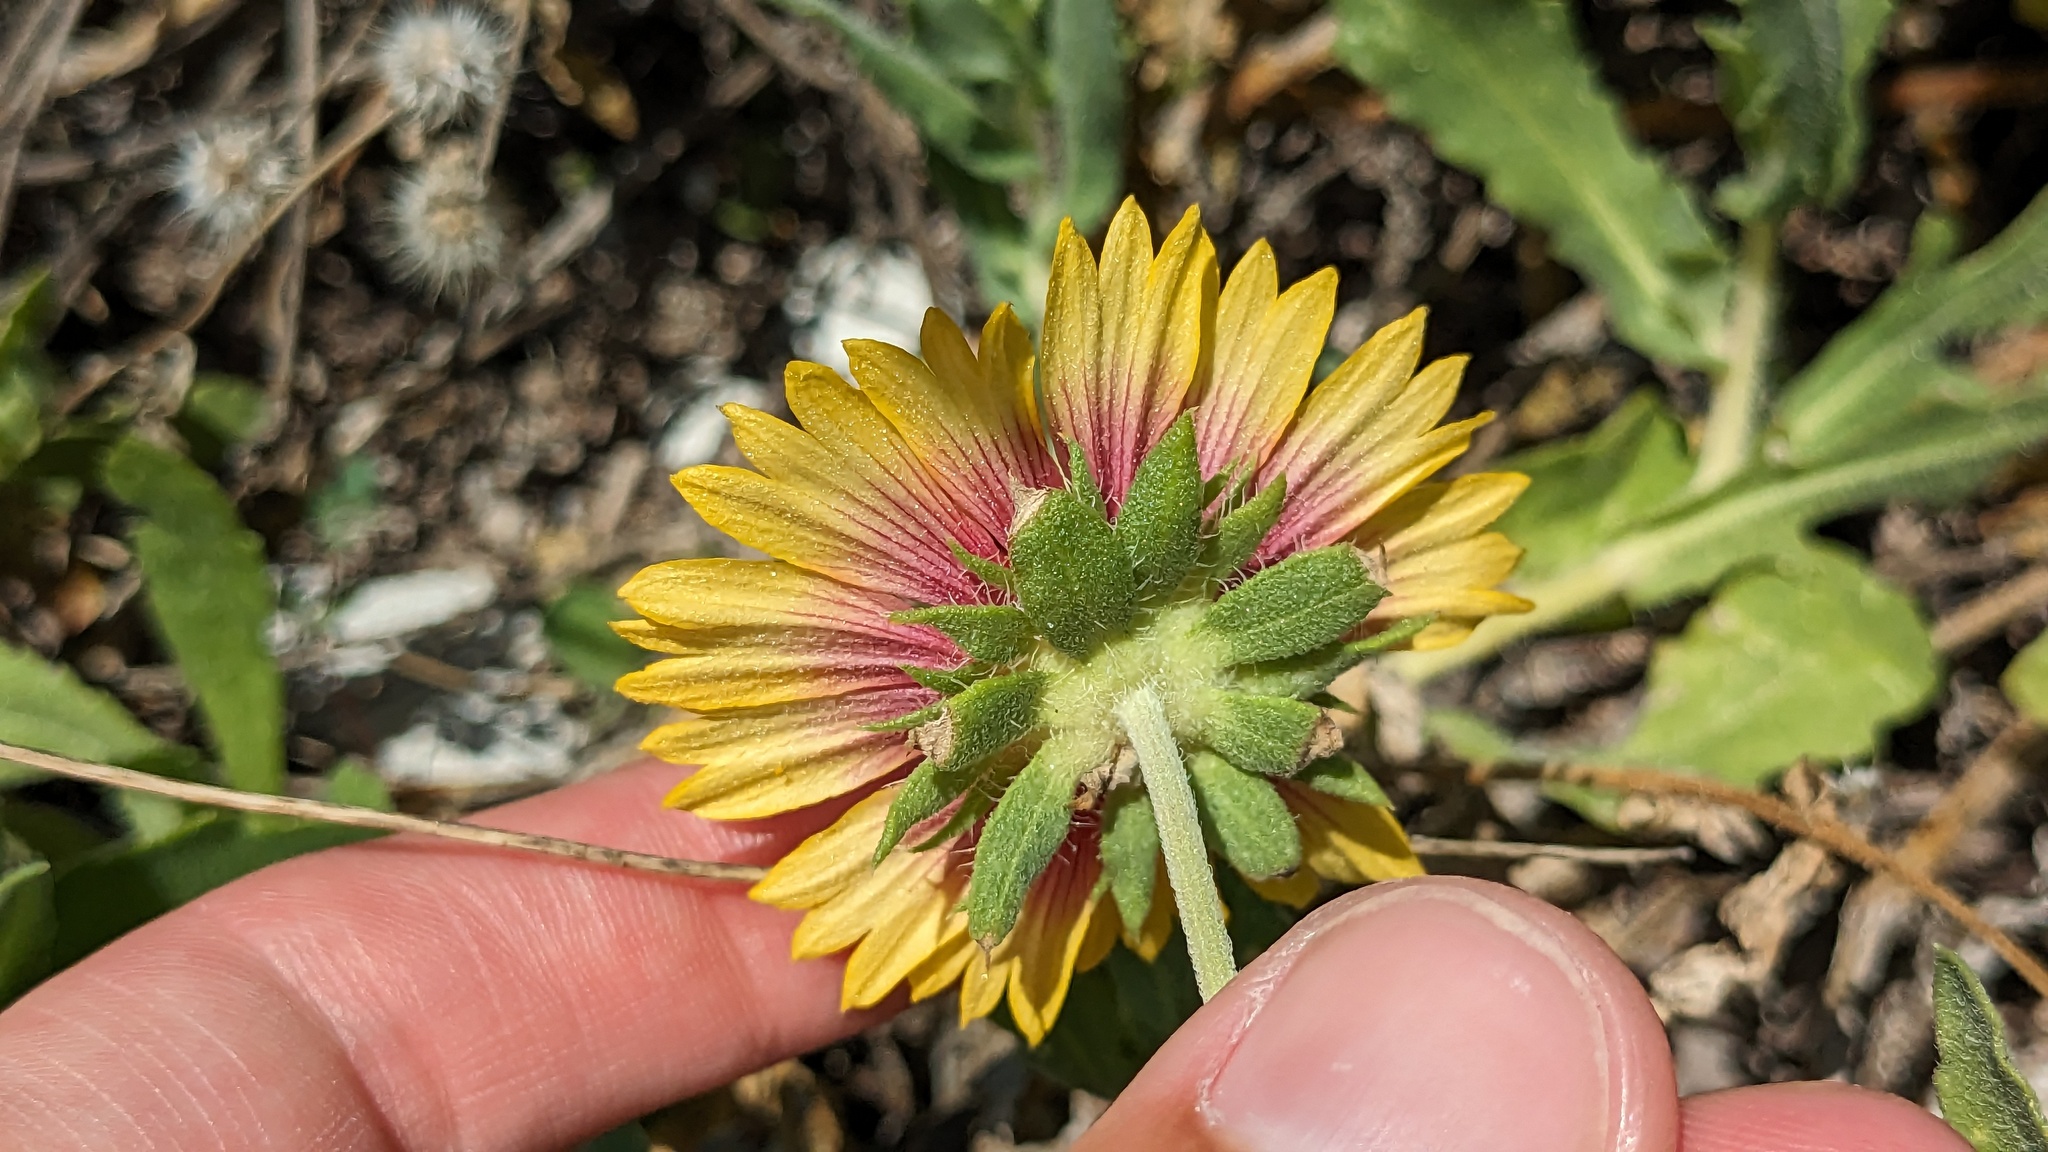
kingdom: Plantae
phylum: Tracheophyta
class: Magnoliopsida
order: Asterales
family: Asteraceae
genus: Gaillardia
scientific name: Gaillardia pulchella
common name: Firewheel
